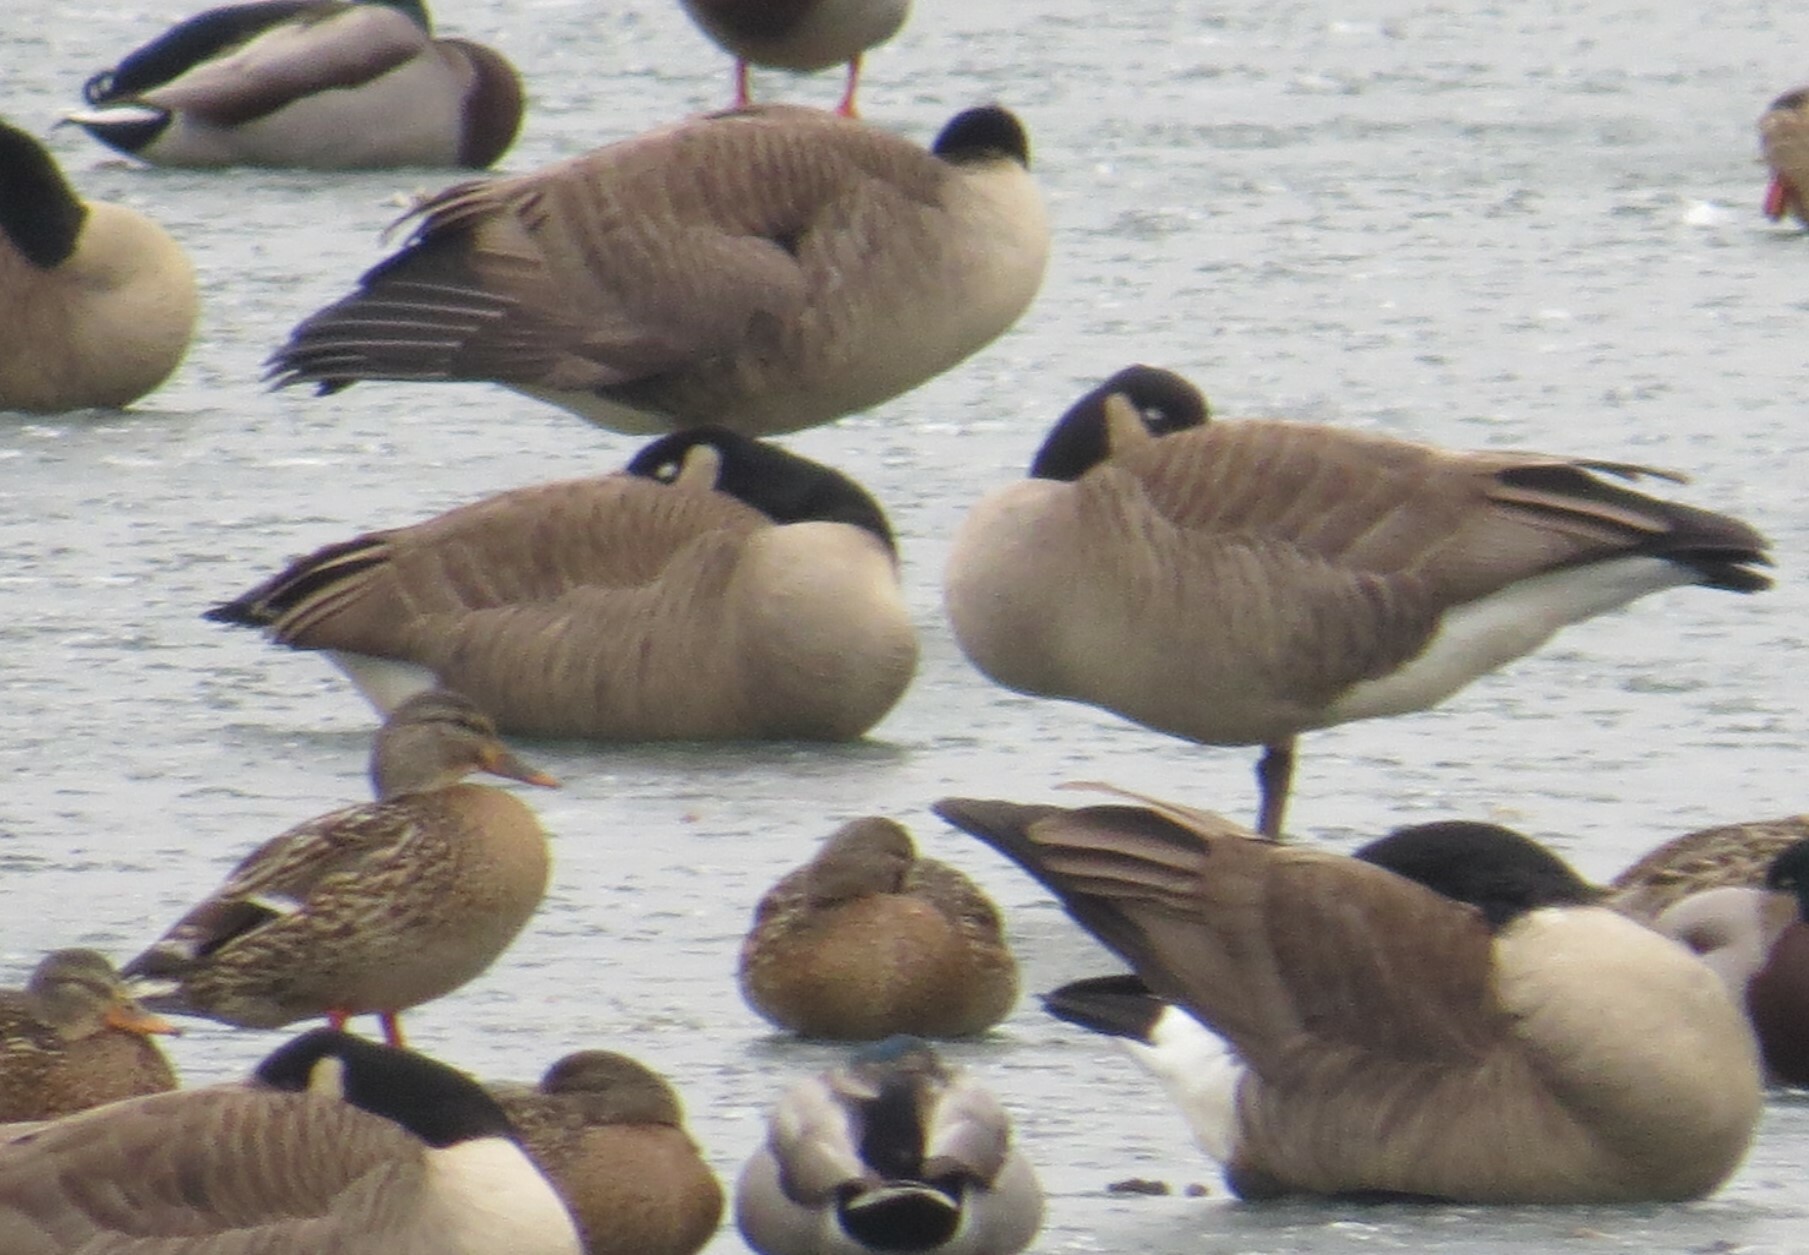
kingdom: Animalia
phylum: Chordata
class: Aves
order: Anseriformes
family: Anatidae
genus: Branta
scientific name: Branta canadensis
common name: Canada goose
